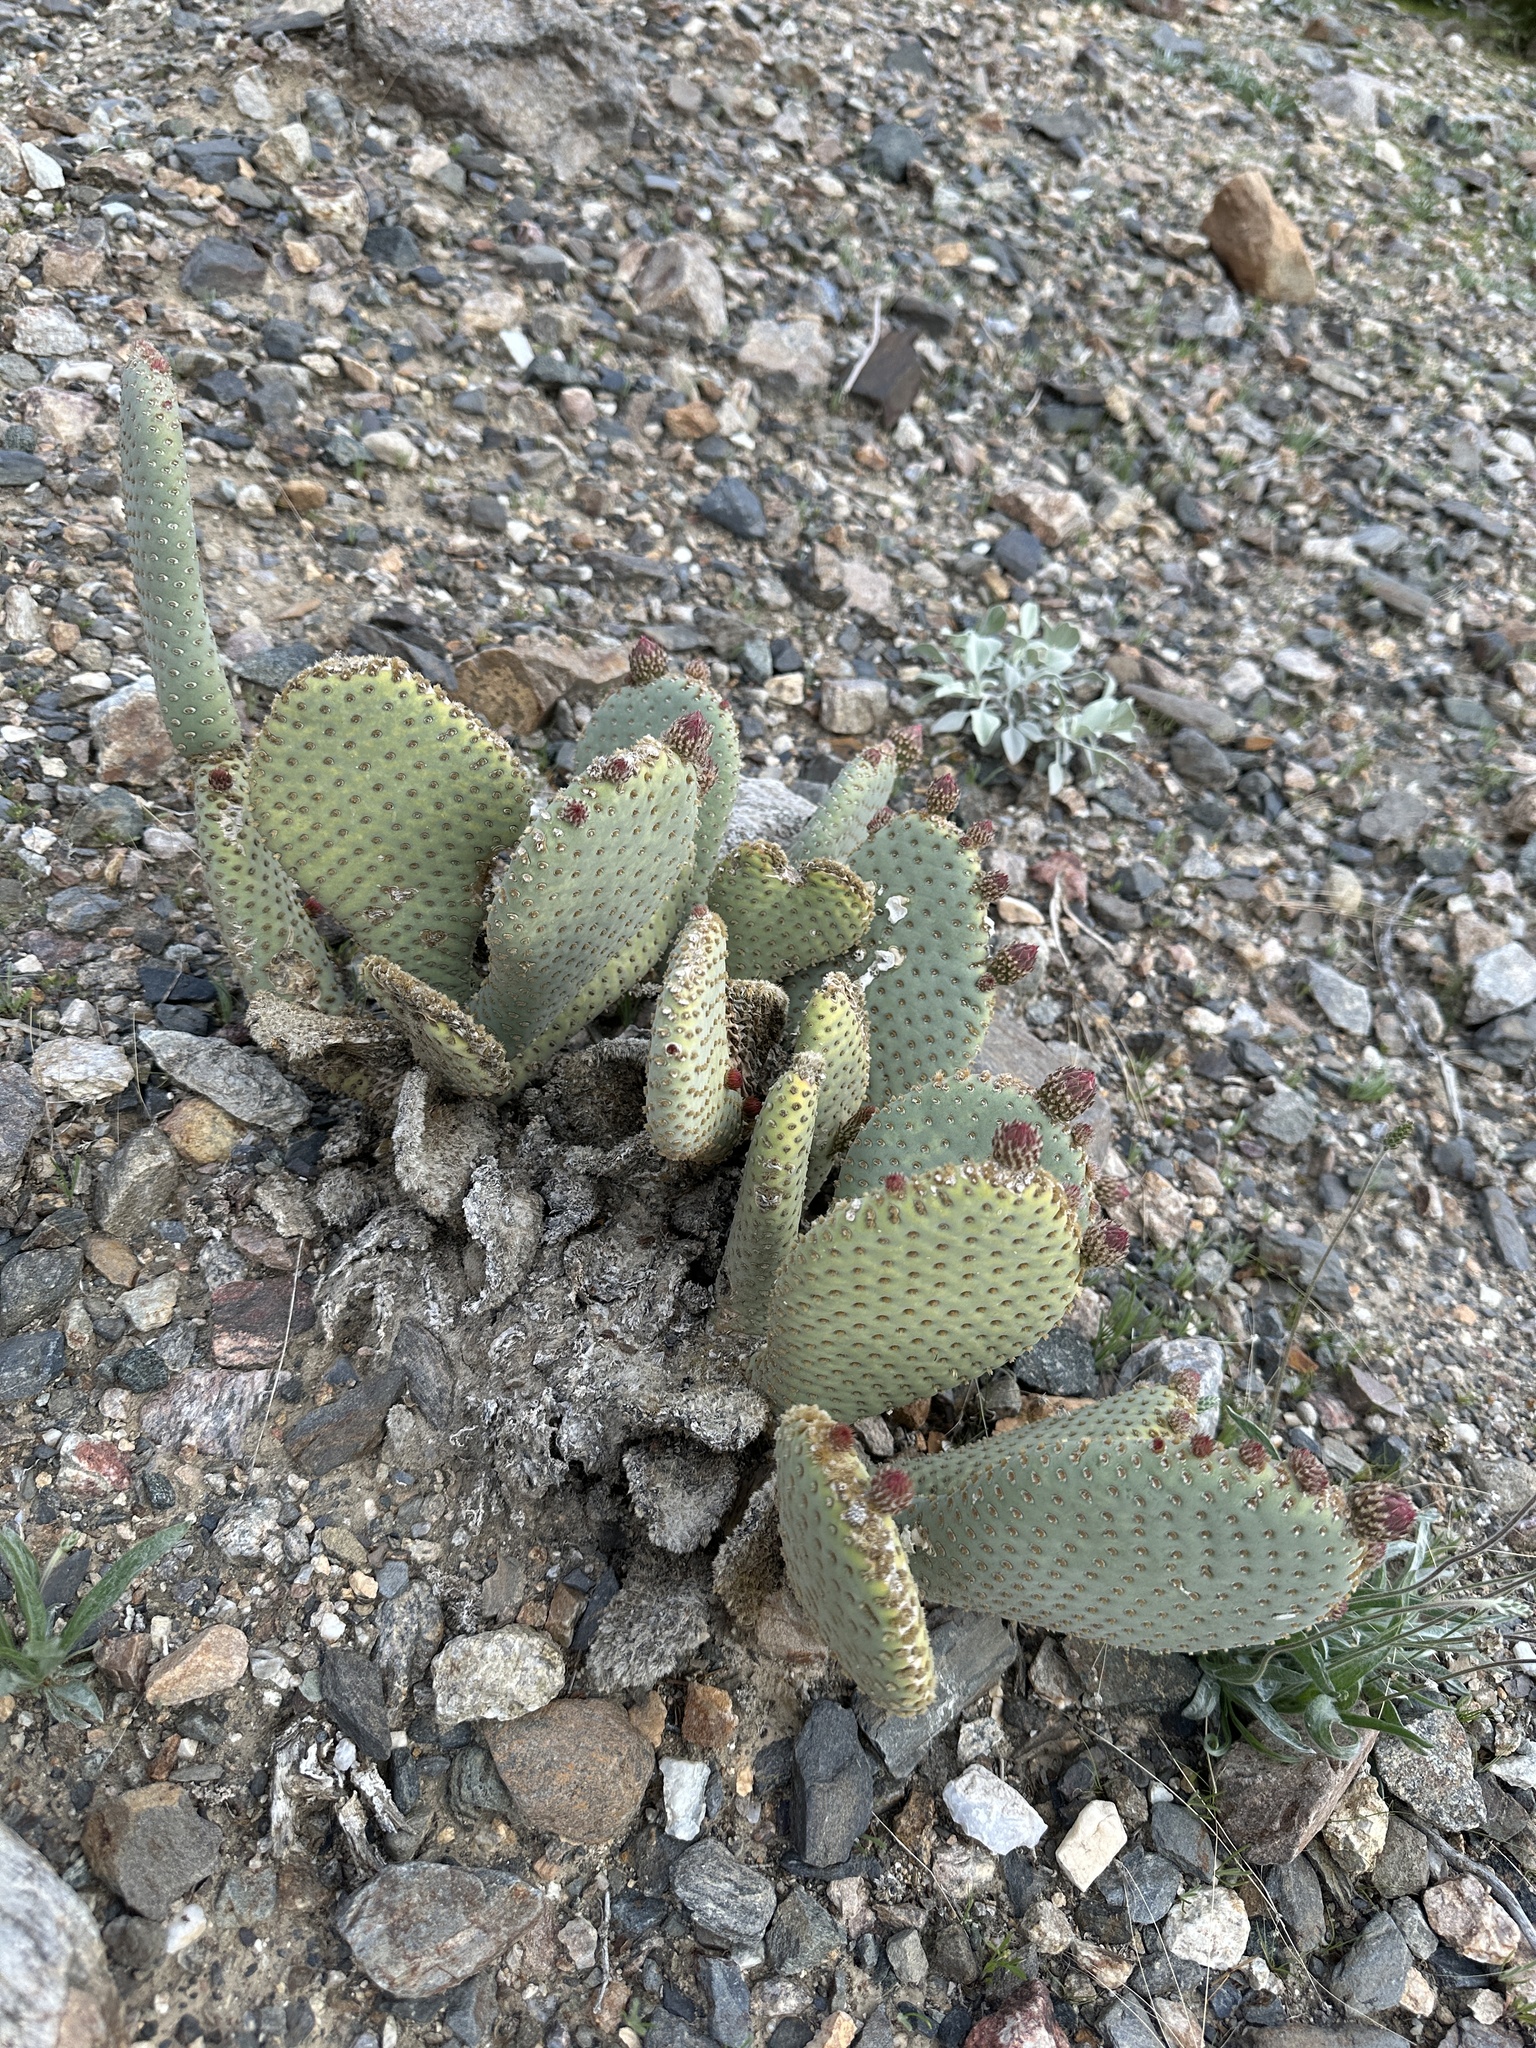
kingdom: Plantae
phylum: Tracheophyta
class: Magnoliopsida
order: Caryophyllales
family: Cactaceae
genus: Opuntia
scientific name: Opuntia basilaris
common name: Beavertail prickly-pear
